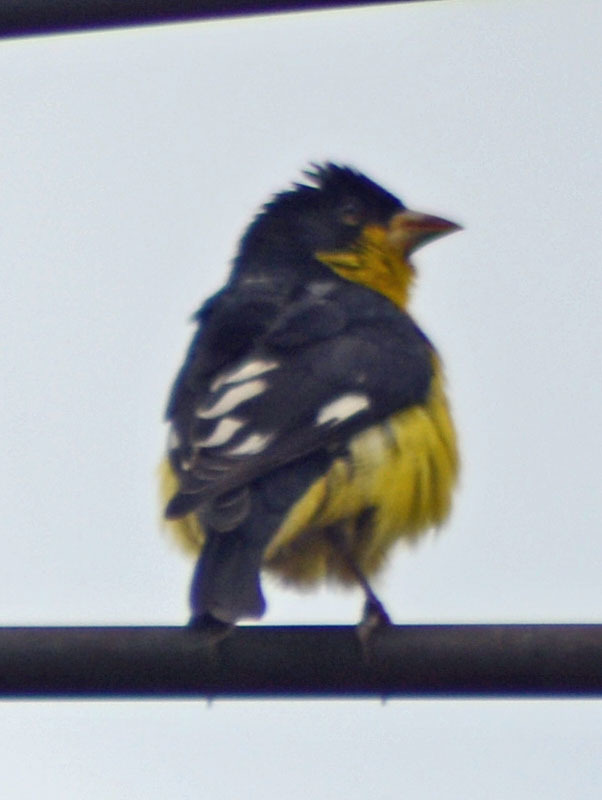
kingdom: Animalia
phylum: Chordata
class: Aves
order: Passeriformes
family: Fringillidae
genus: Spinus
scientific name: Spinus psaltria
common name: Lesser goldfinch
